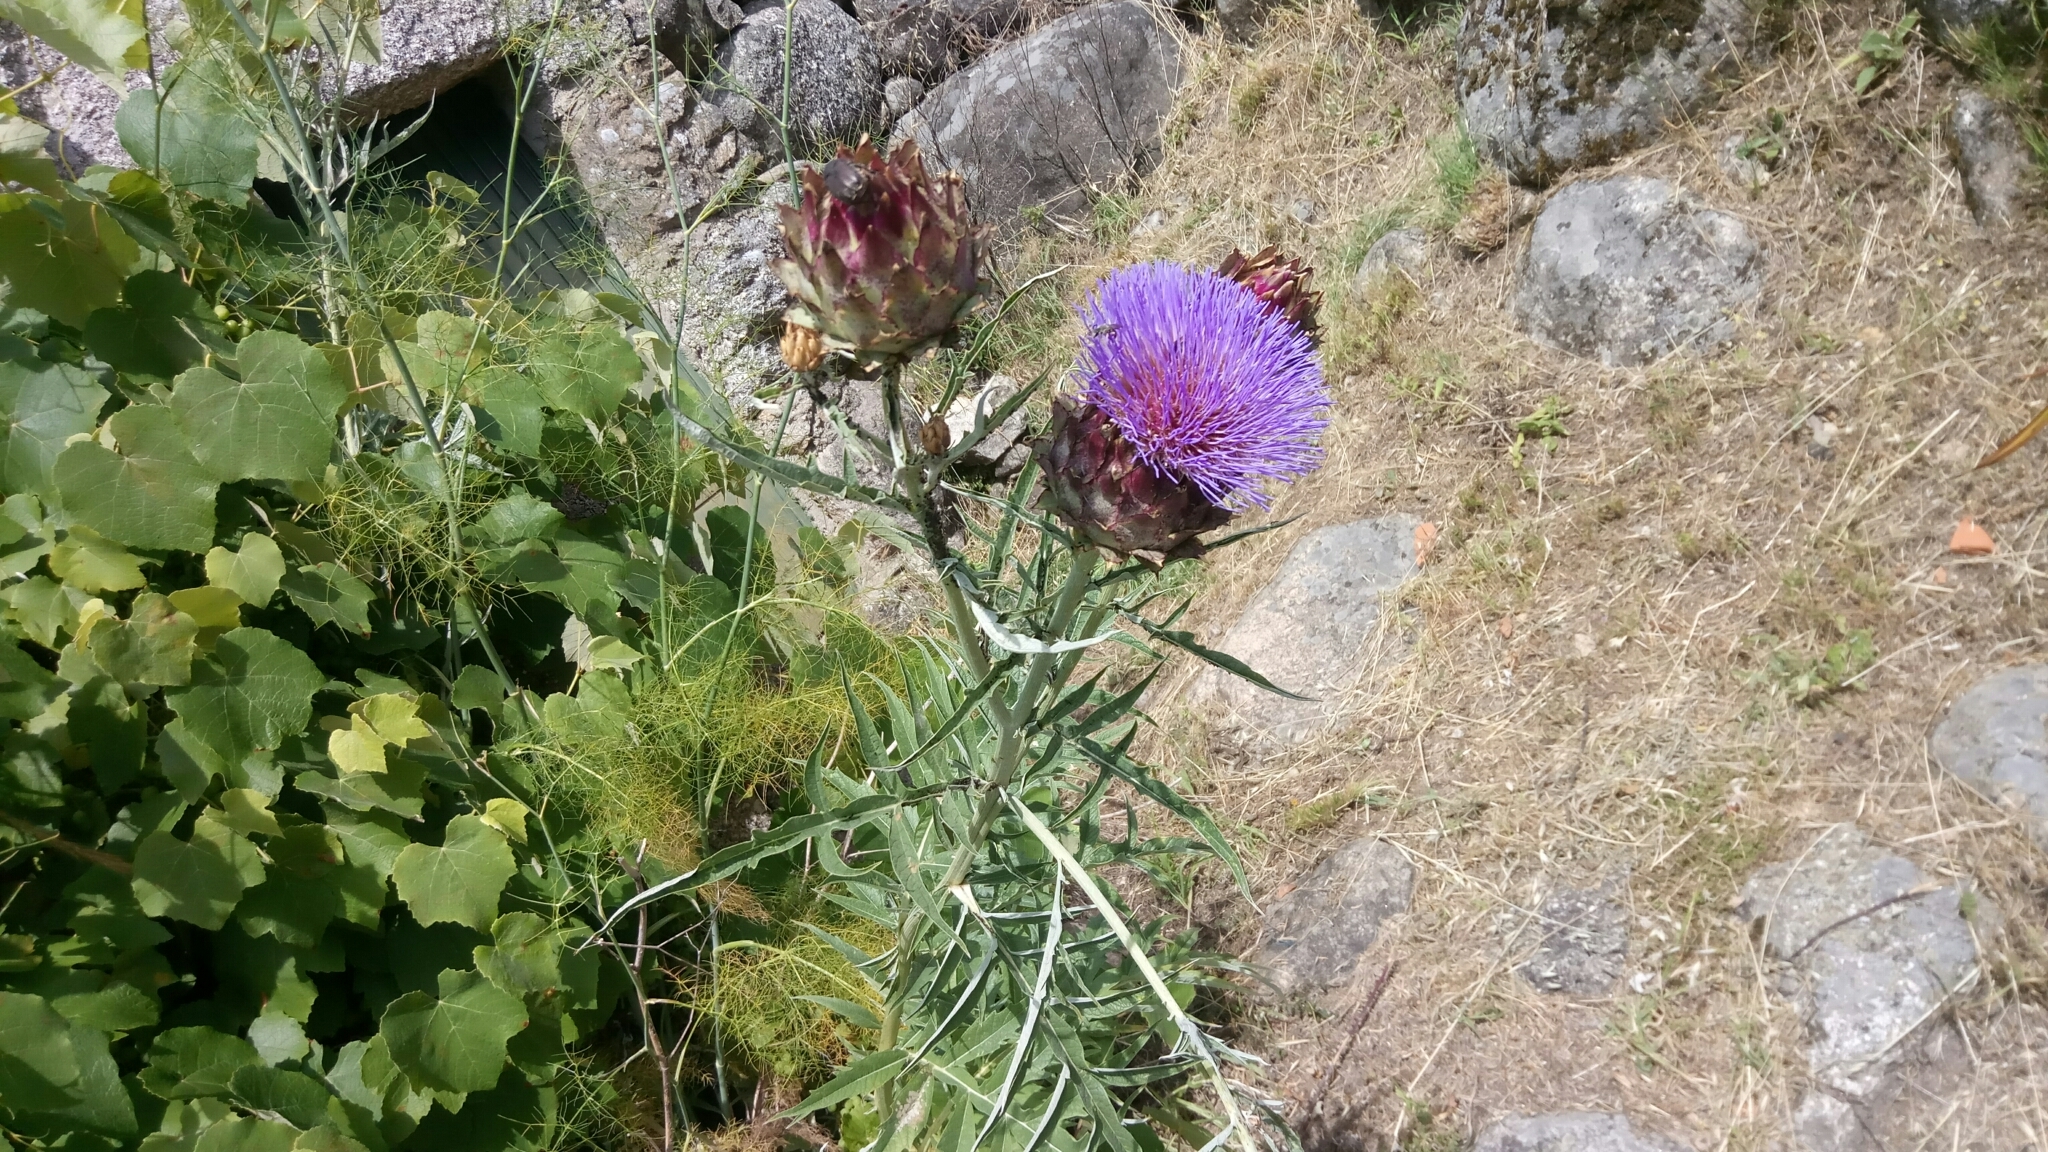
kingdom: Plantae
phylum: Tracheophyta
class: Magnoliopsida
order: Asterales
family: Asteraceae
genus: Cynara
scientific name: Cynara cardunculus
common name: Globe artichoke
